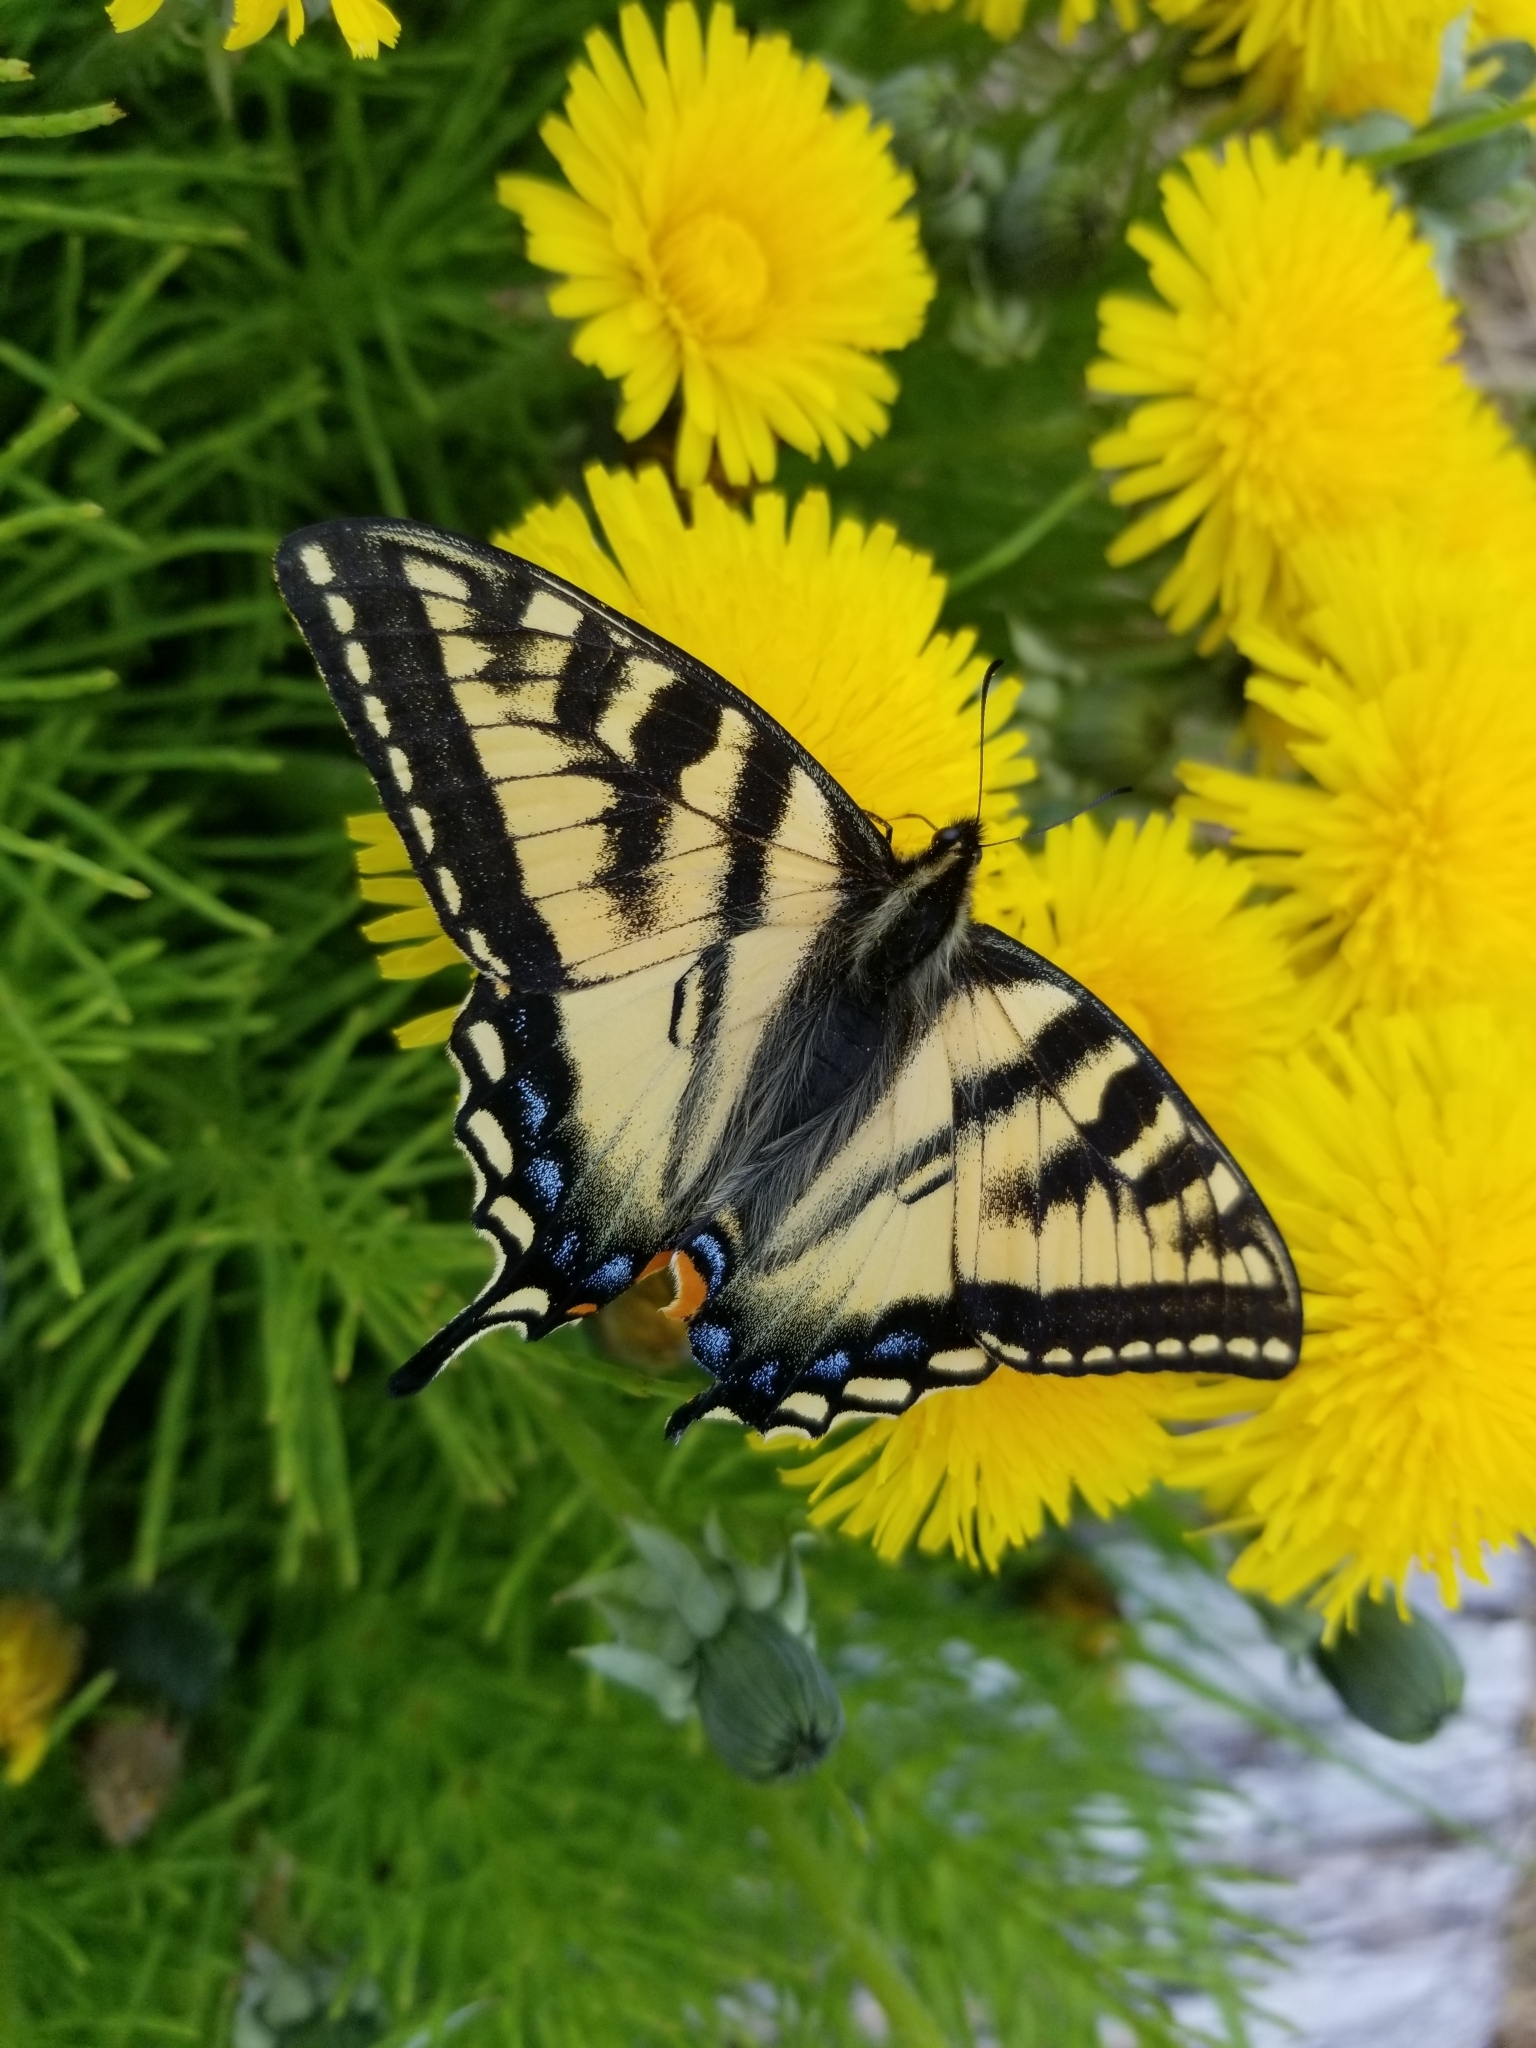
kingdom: Animalia
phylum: Arthropoda
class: Insecta
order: Lepidoptera
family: Papilionidae
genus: Papilio
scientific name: Papilio canadensis
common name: Canadian tiger swallowtail
